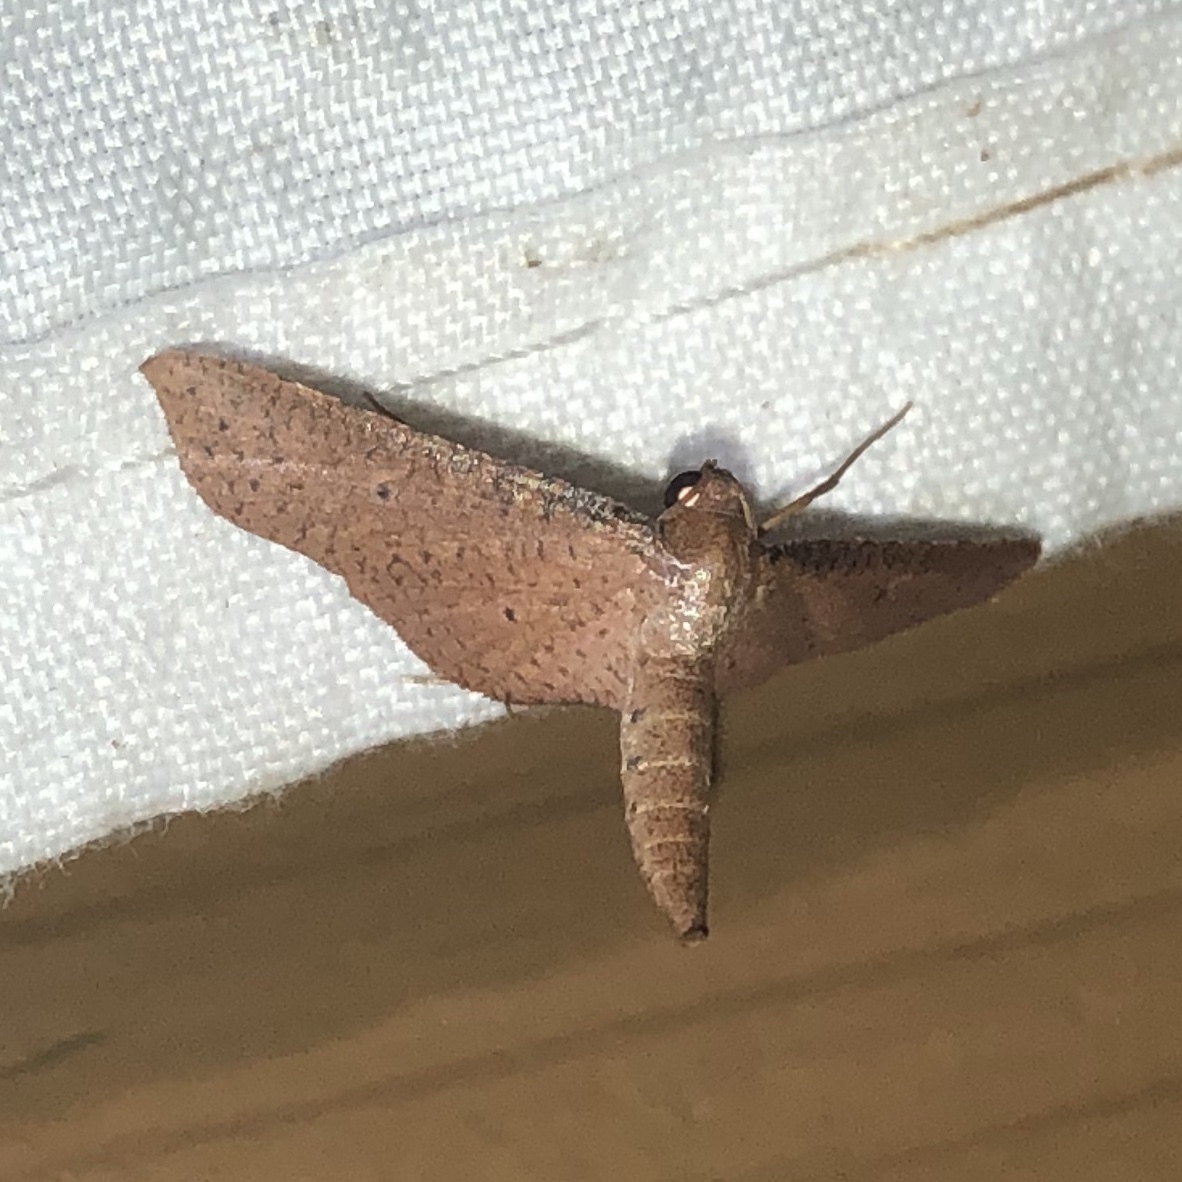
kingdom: Animalia
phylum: Arthropoda
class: Insecta
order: Lepidoptera
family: Thyrididae
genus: Loxiorhiza
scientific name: Loxiorhiza unitula
